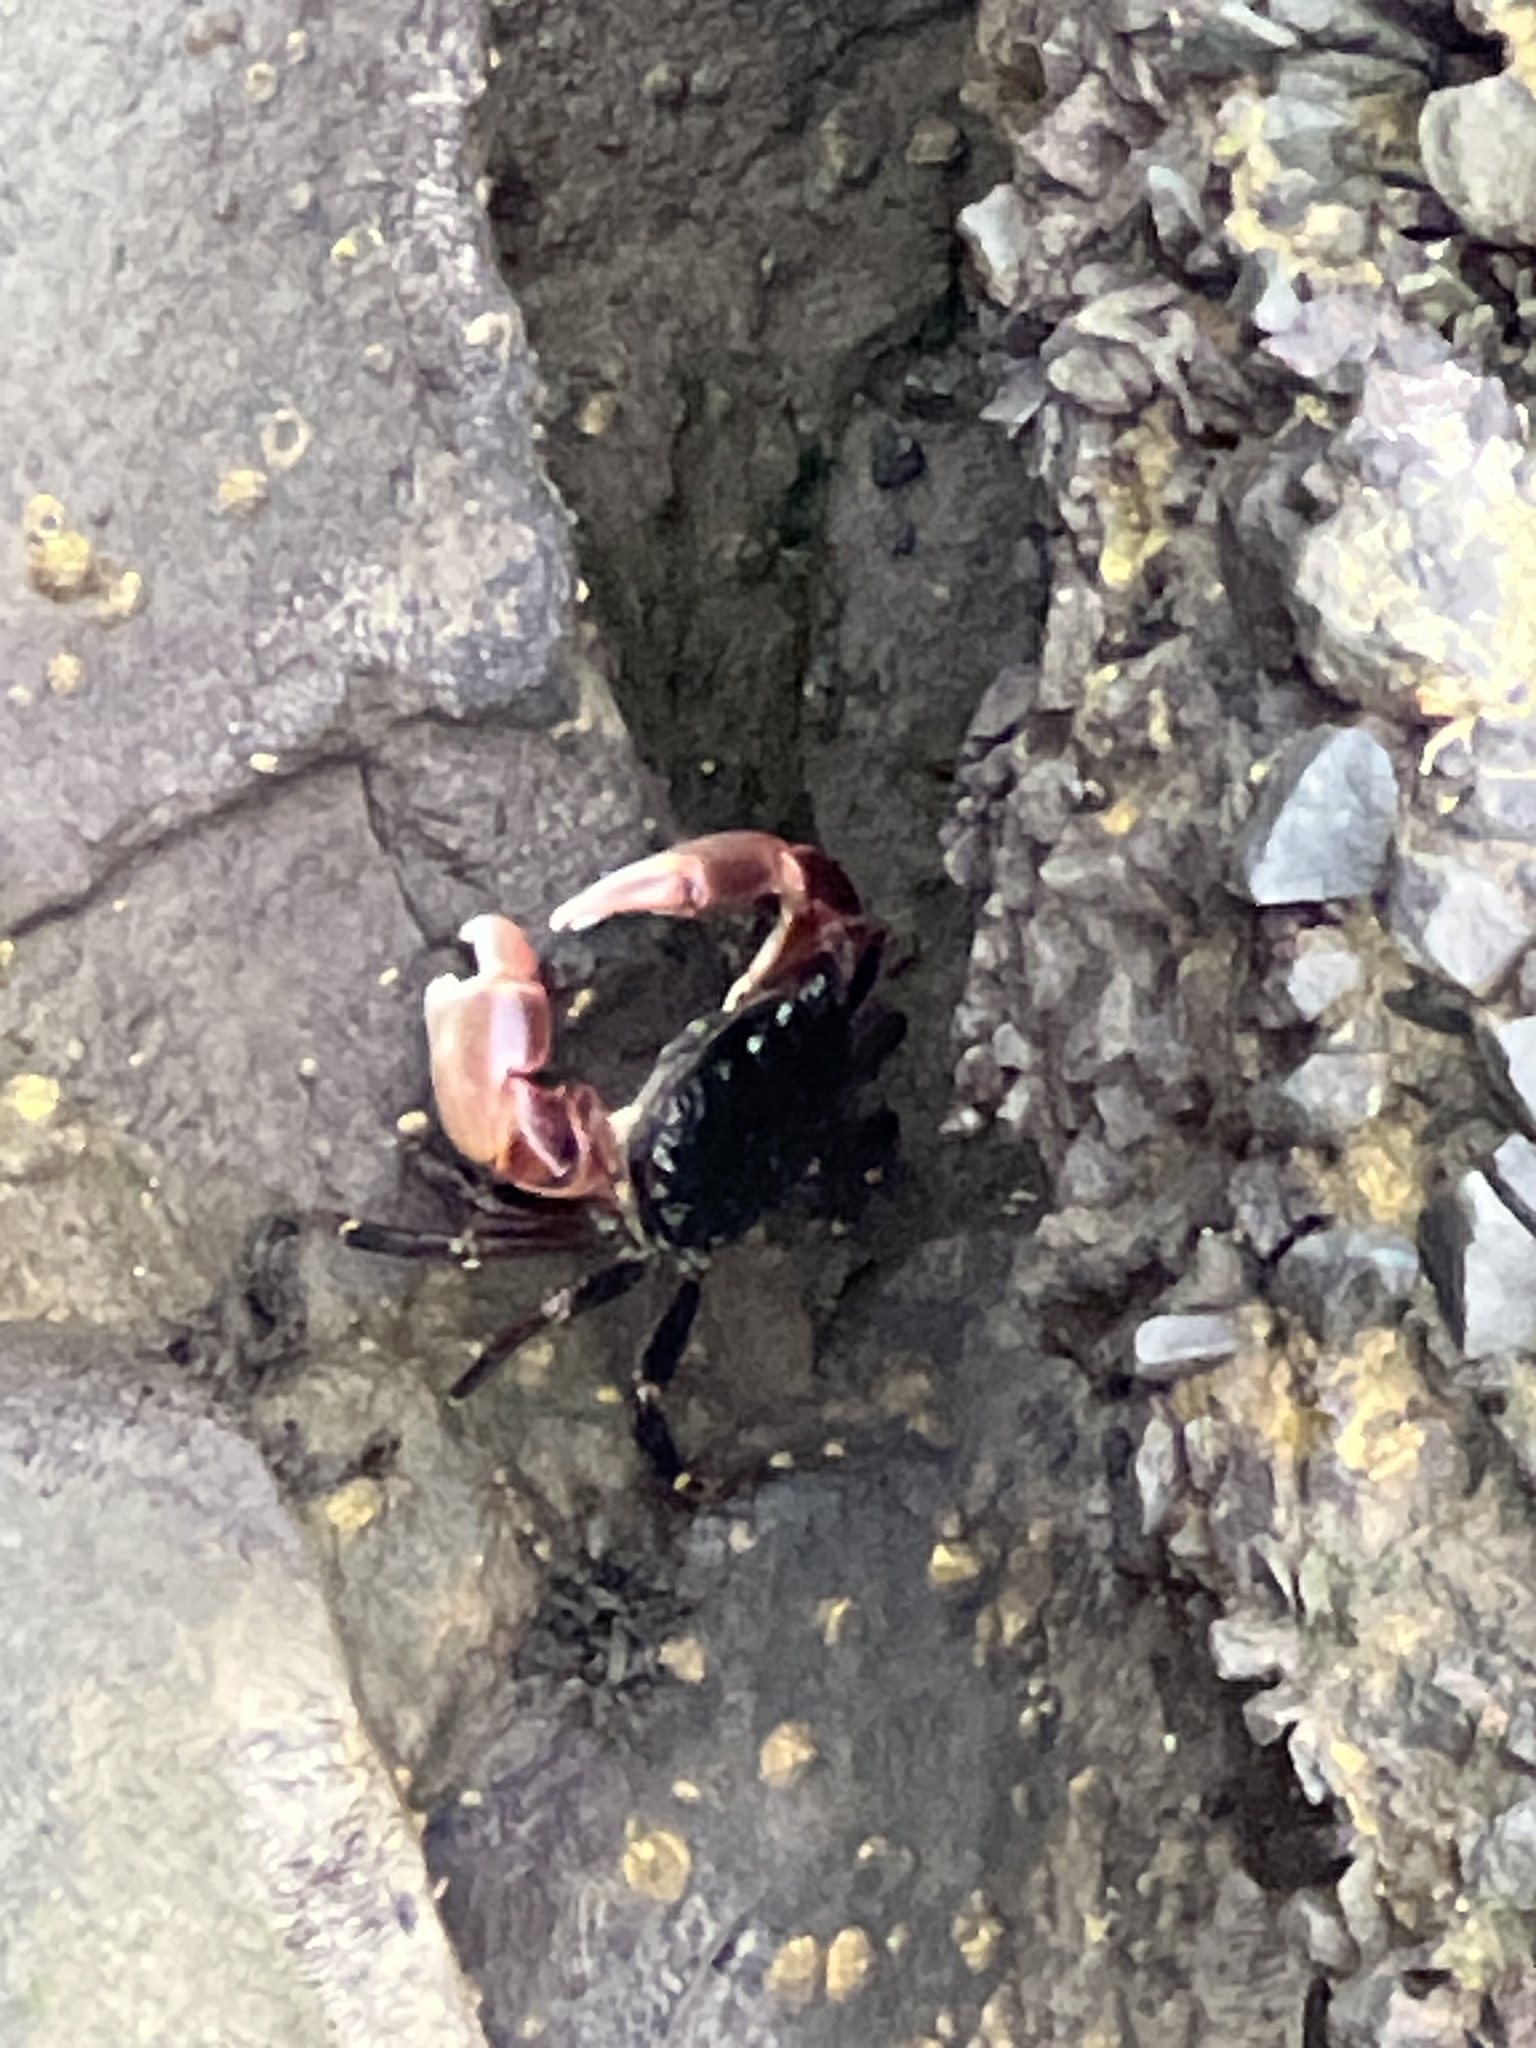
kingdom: Animalia
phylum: Arthropoda
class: Malacostraca
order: Decapoda
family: Grapsidae
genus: Pachygrapsus
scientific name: Pachygrapsus crassipes
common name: Striped shore crab
